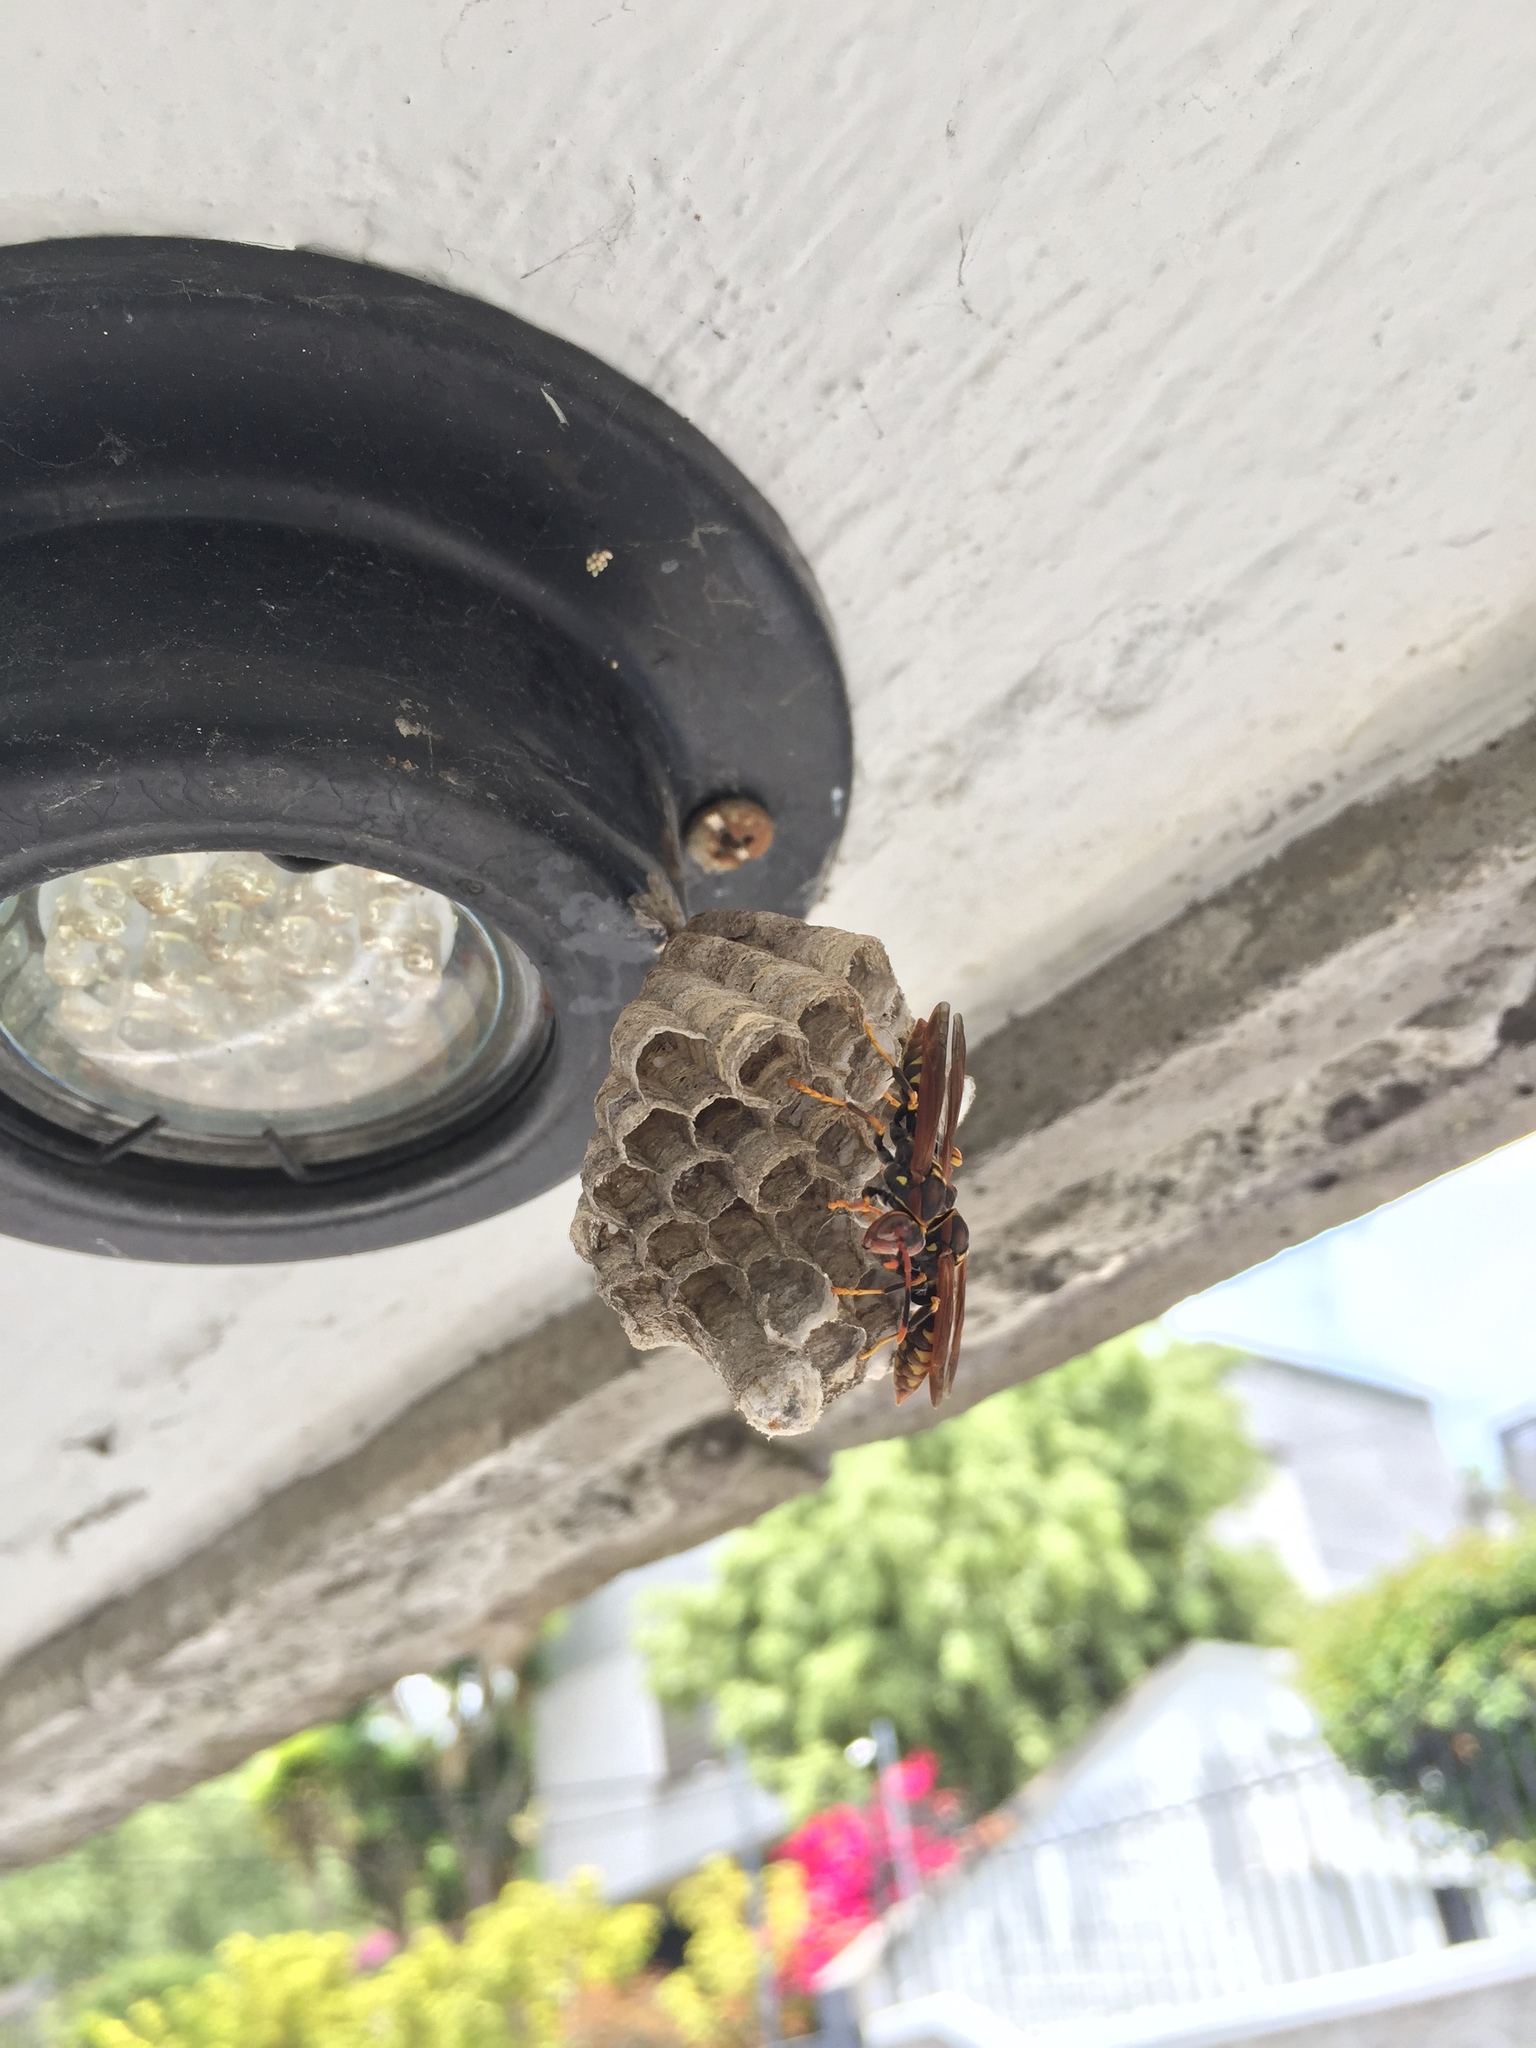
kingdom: Animalia
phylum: Arthropoda
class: Insecta
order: Hymenoptera
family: Eumenidae
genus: Polistes
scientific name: Polistes weyrauchorum
